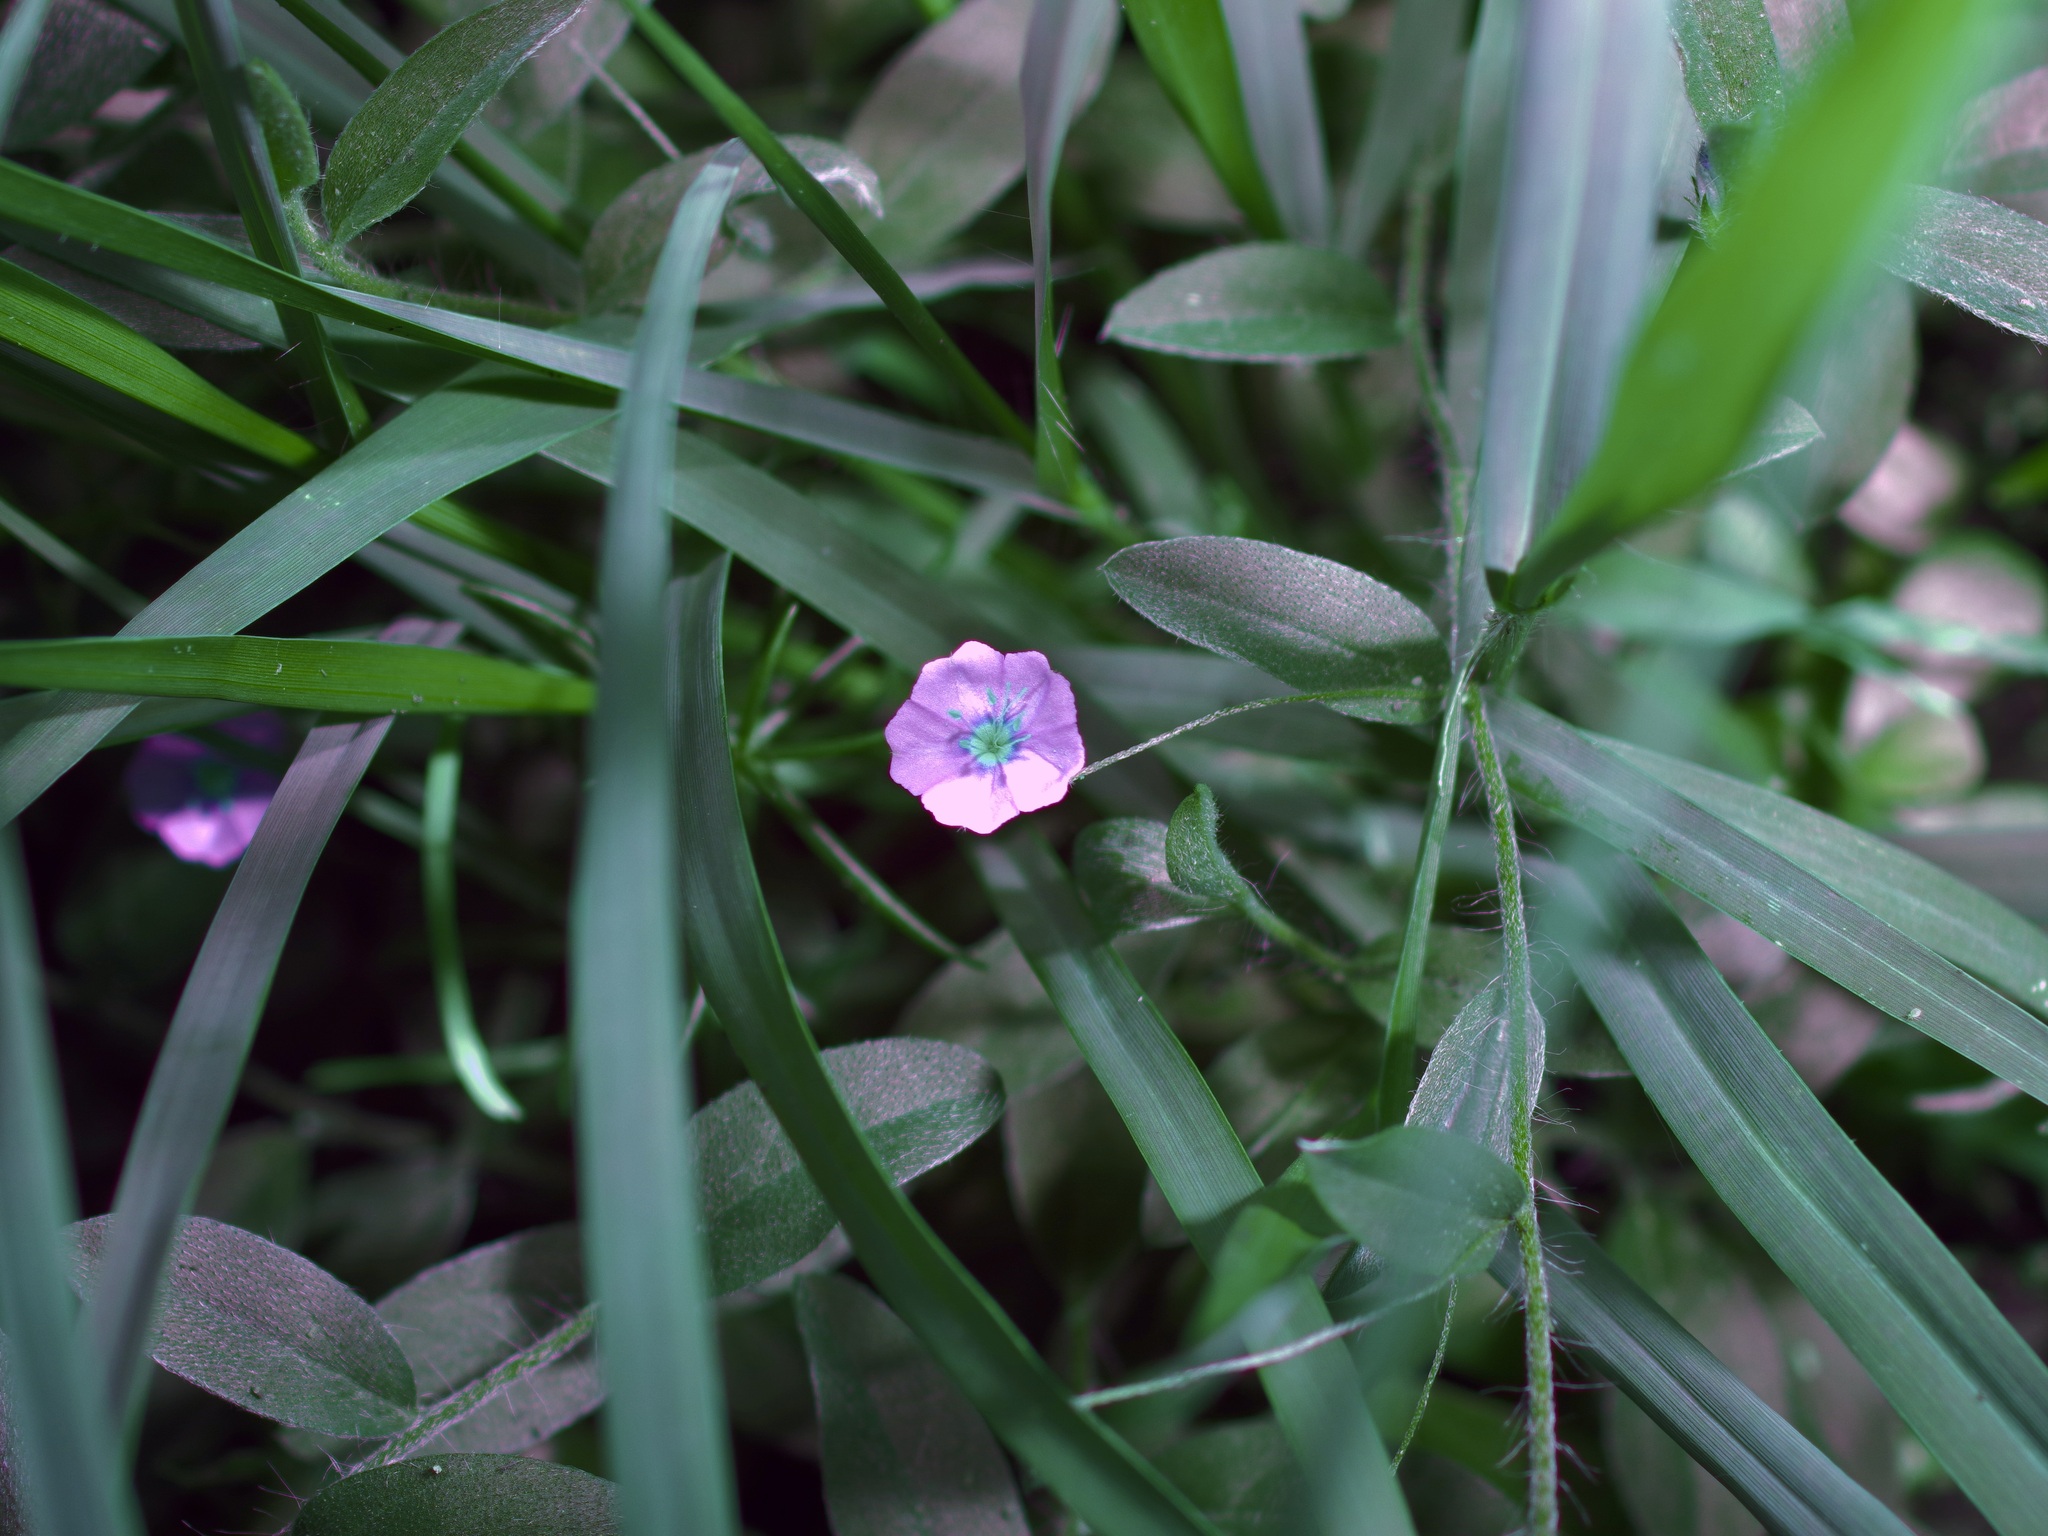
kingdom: Plantae
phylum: Tracheophyta
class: Magnoliopsida
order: Solanales
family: Convolvulaceae
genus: Evolvulus
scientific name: Evolvulus alsinoides
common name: Slender dwarf morning-glory
